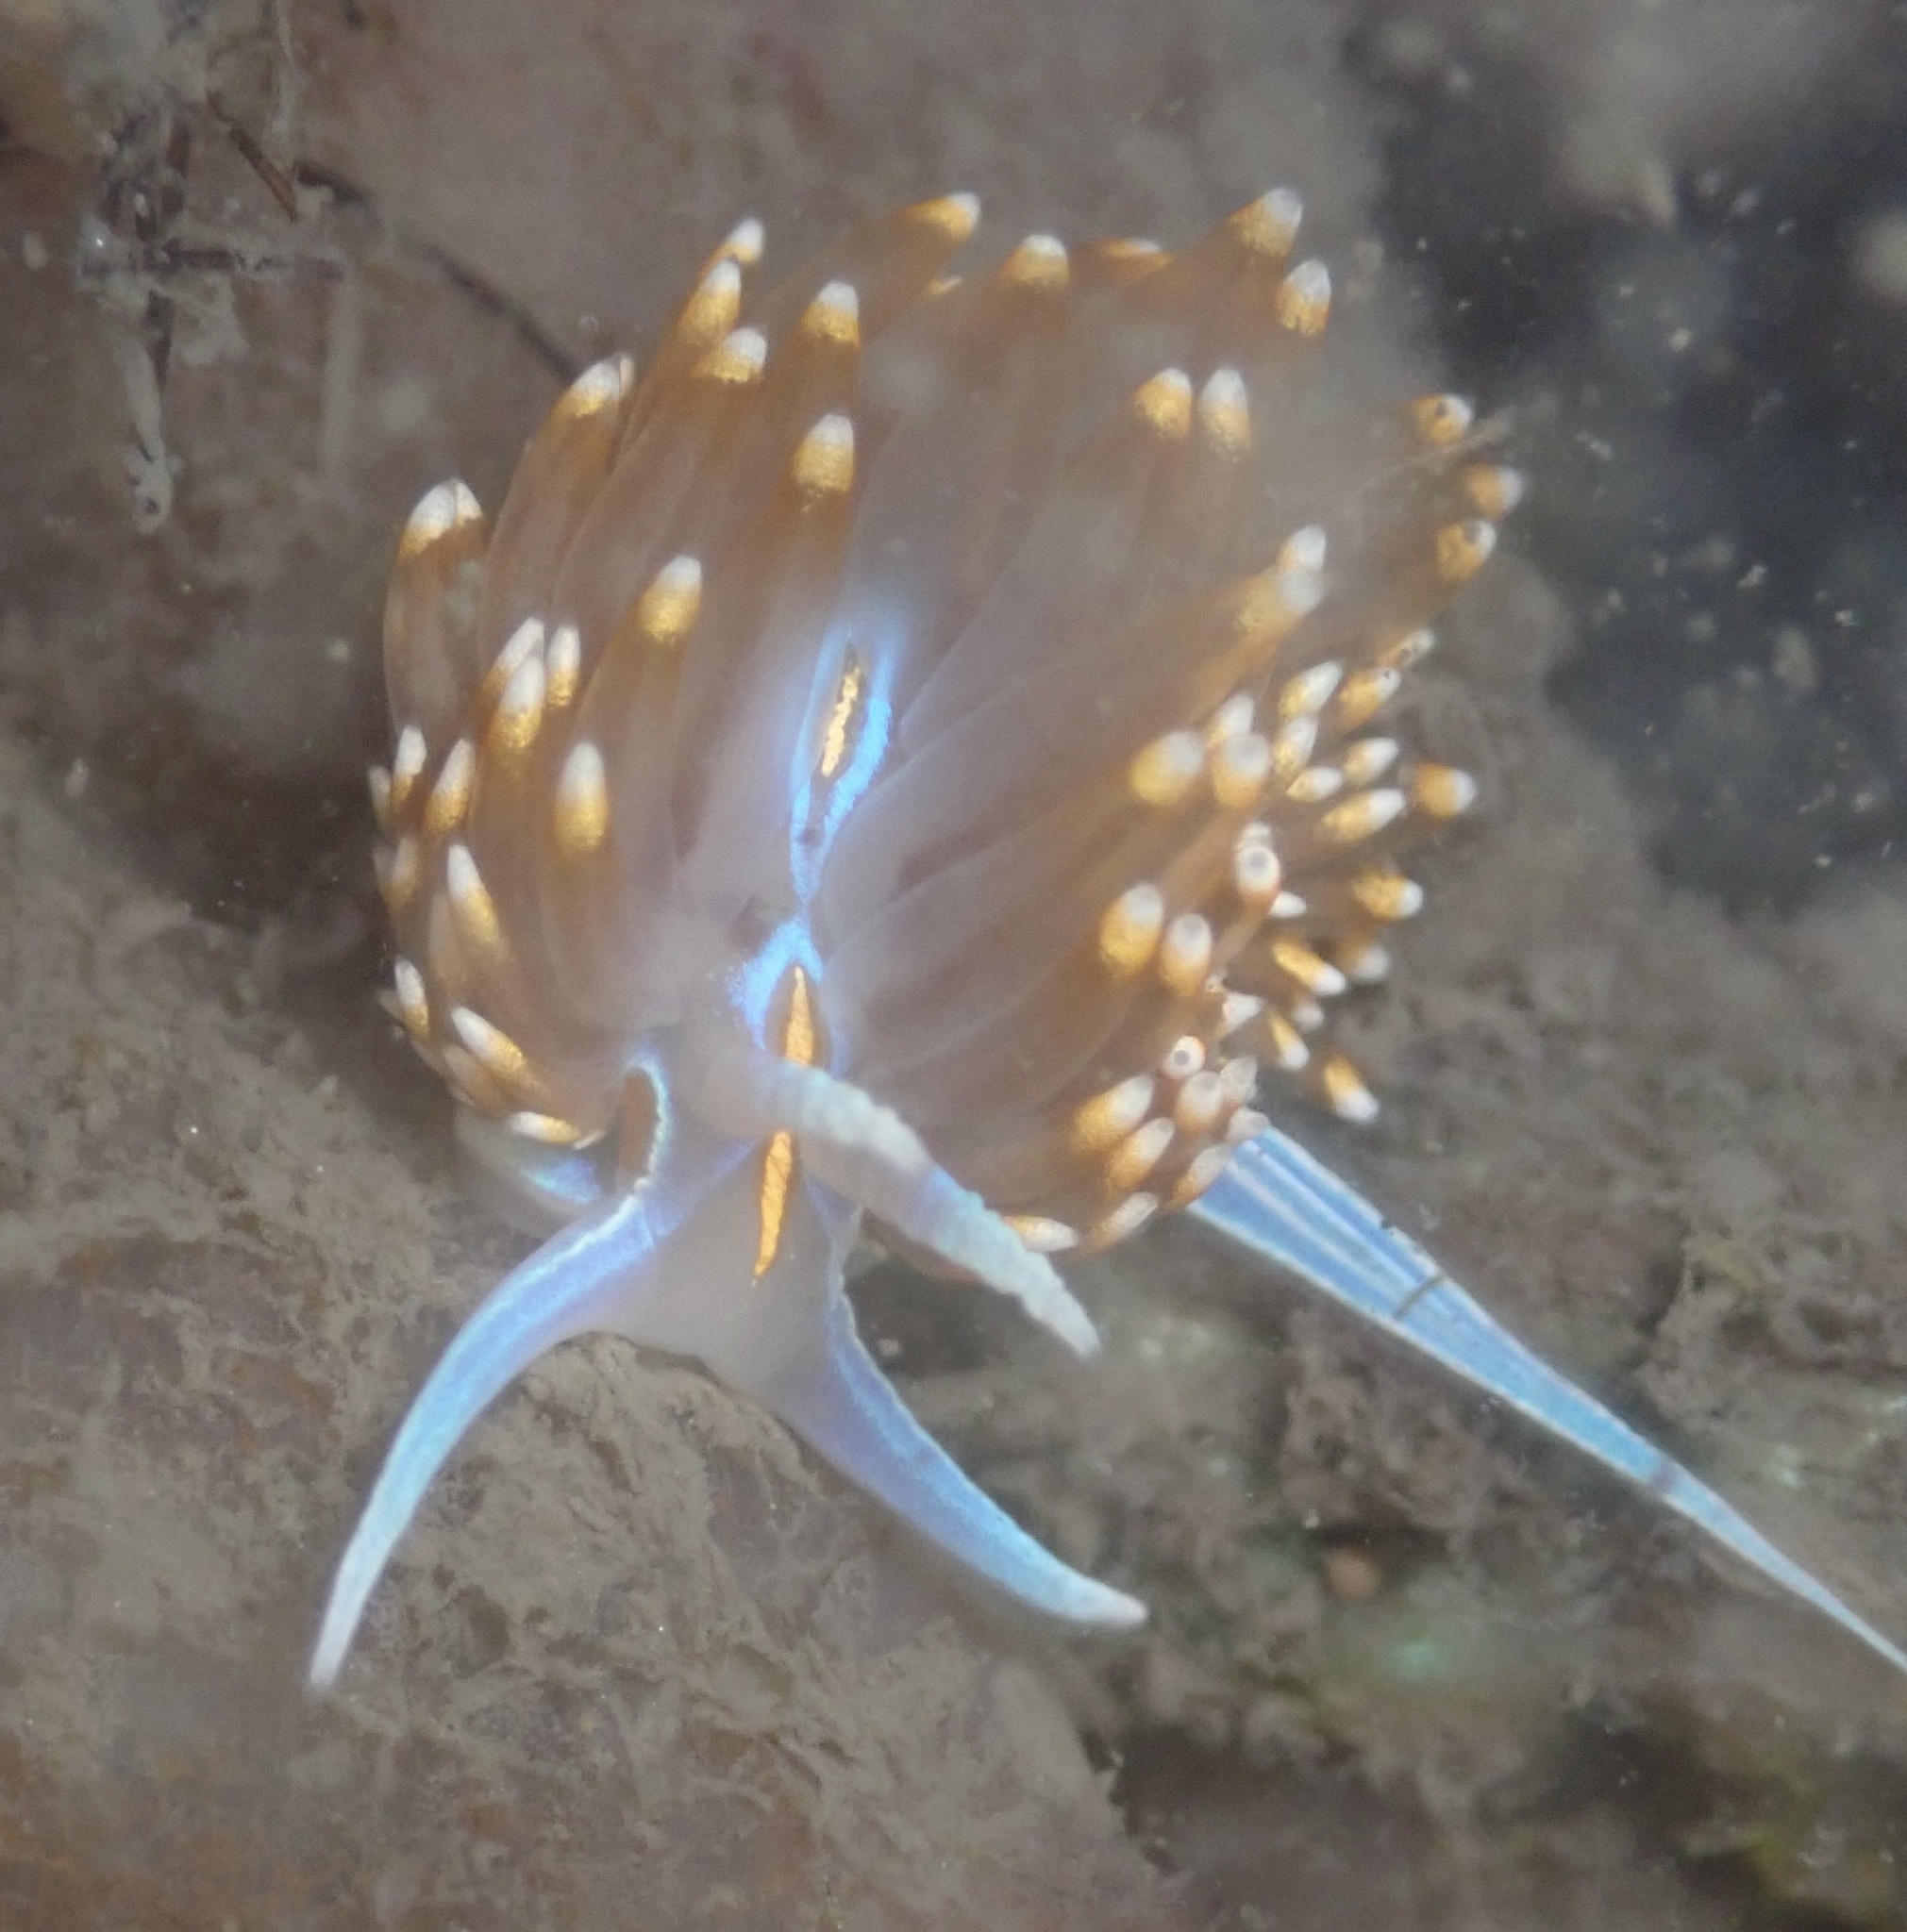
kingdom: Animalia
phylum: Mollusca
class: Gastropoda
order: Nudibranchia
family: Myrrhinidae
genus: Hermissenda
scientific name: Hermissenda opalescens
